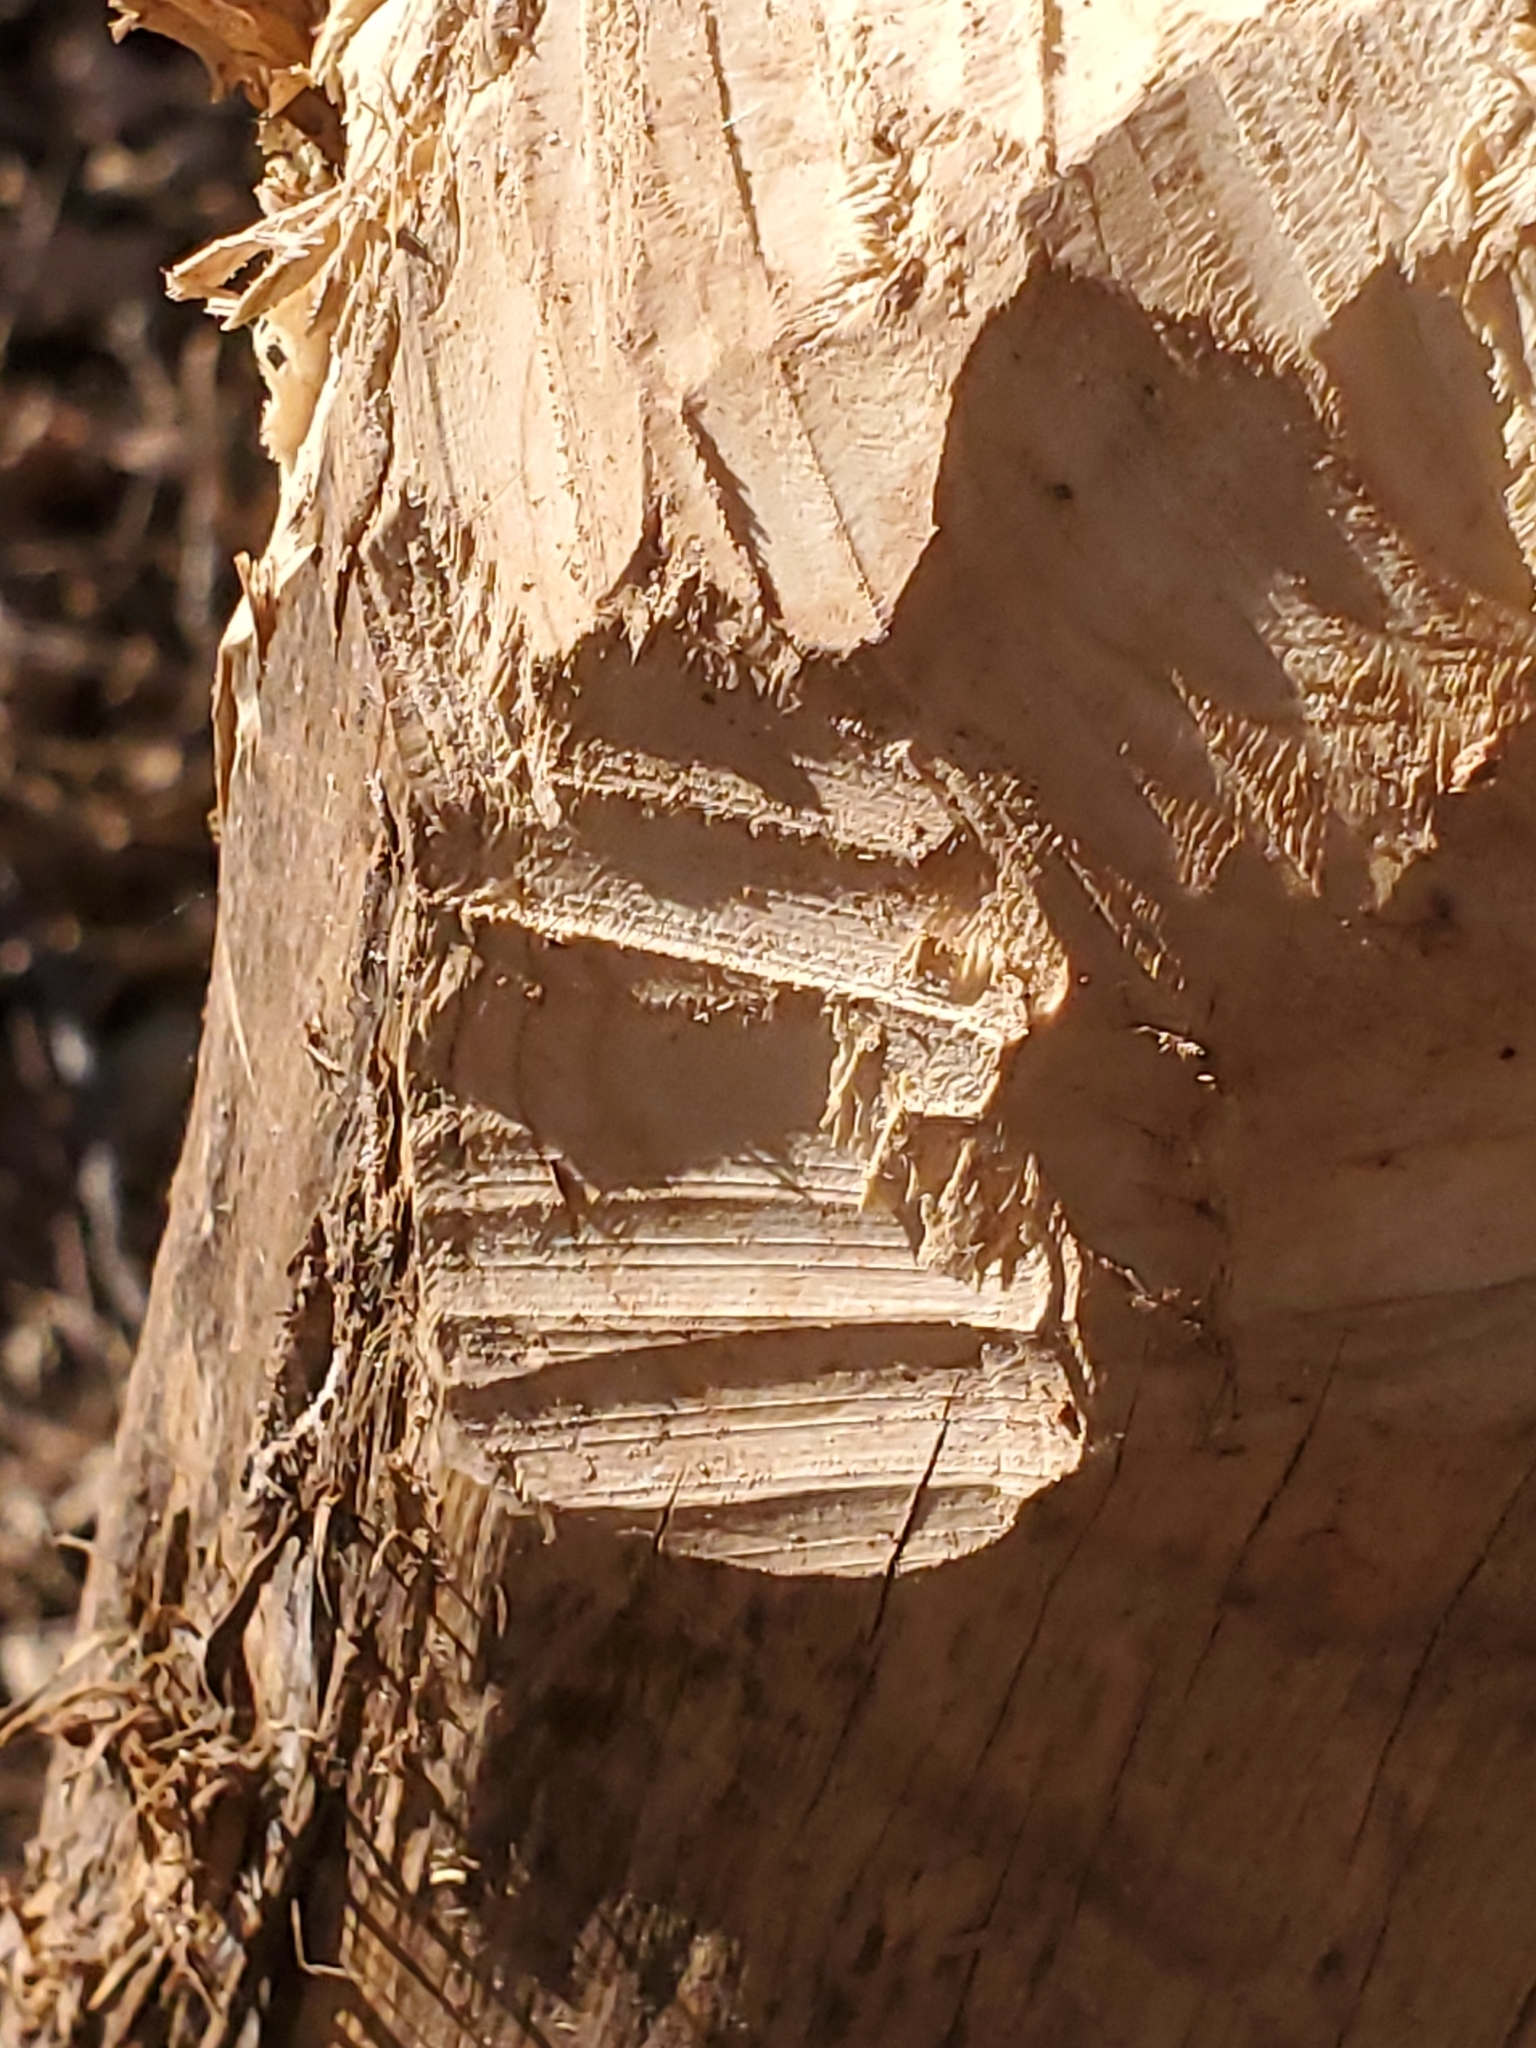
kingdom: Animalia
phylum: Chordata
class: Mammalia
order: Rodentia
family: Castoridae
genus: Castor
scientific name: Castor canadensis
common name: American beaver
